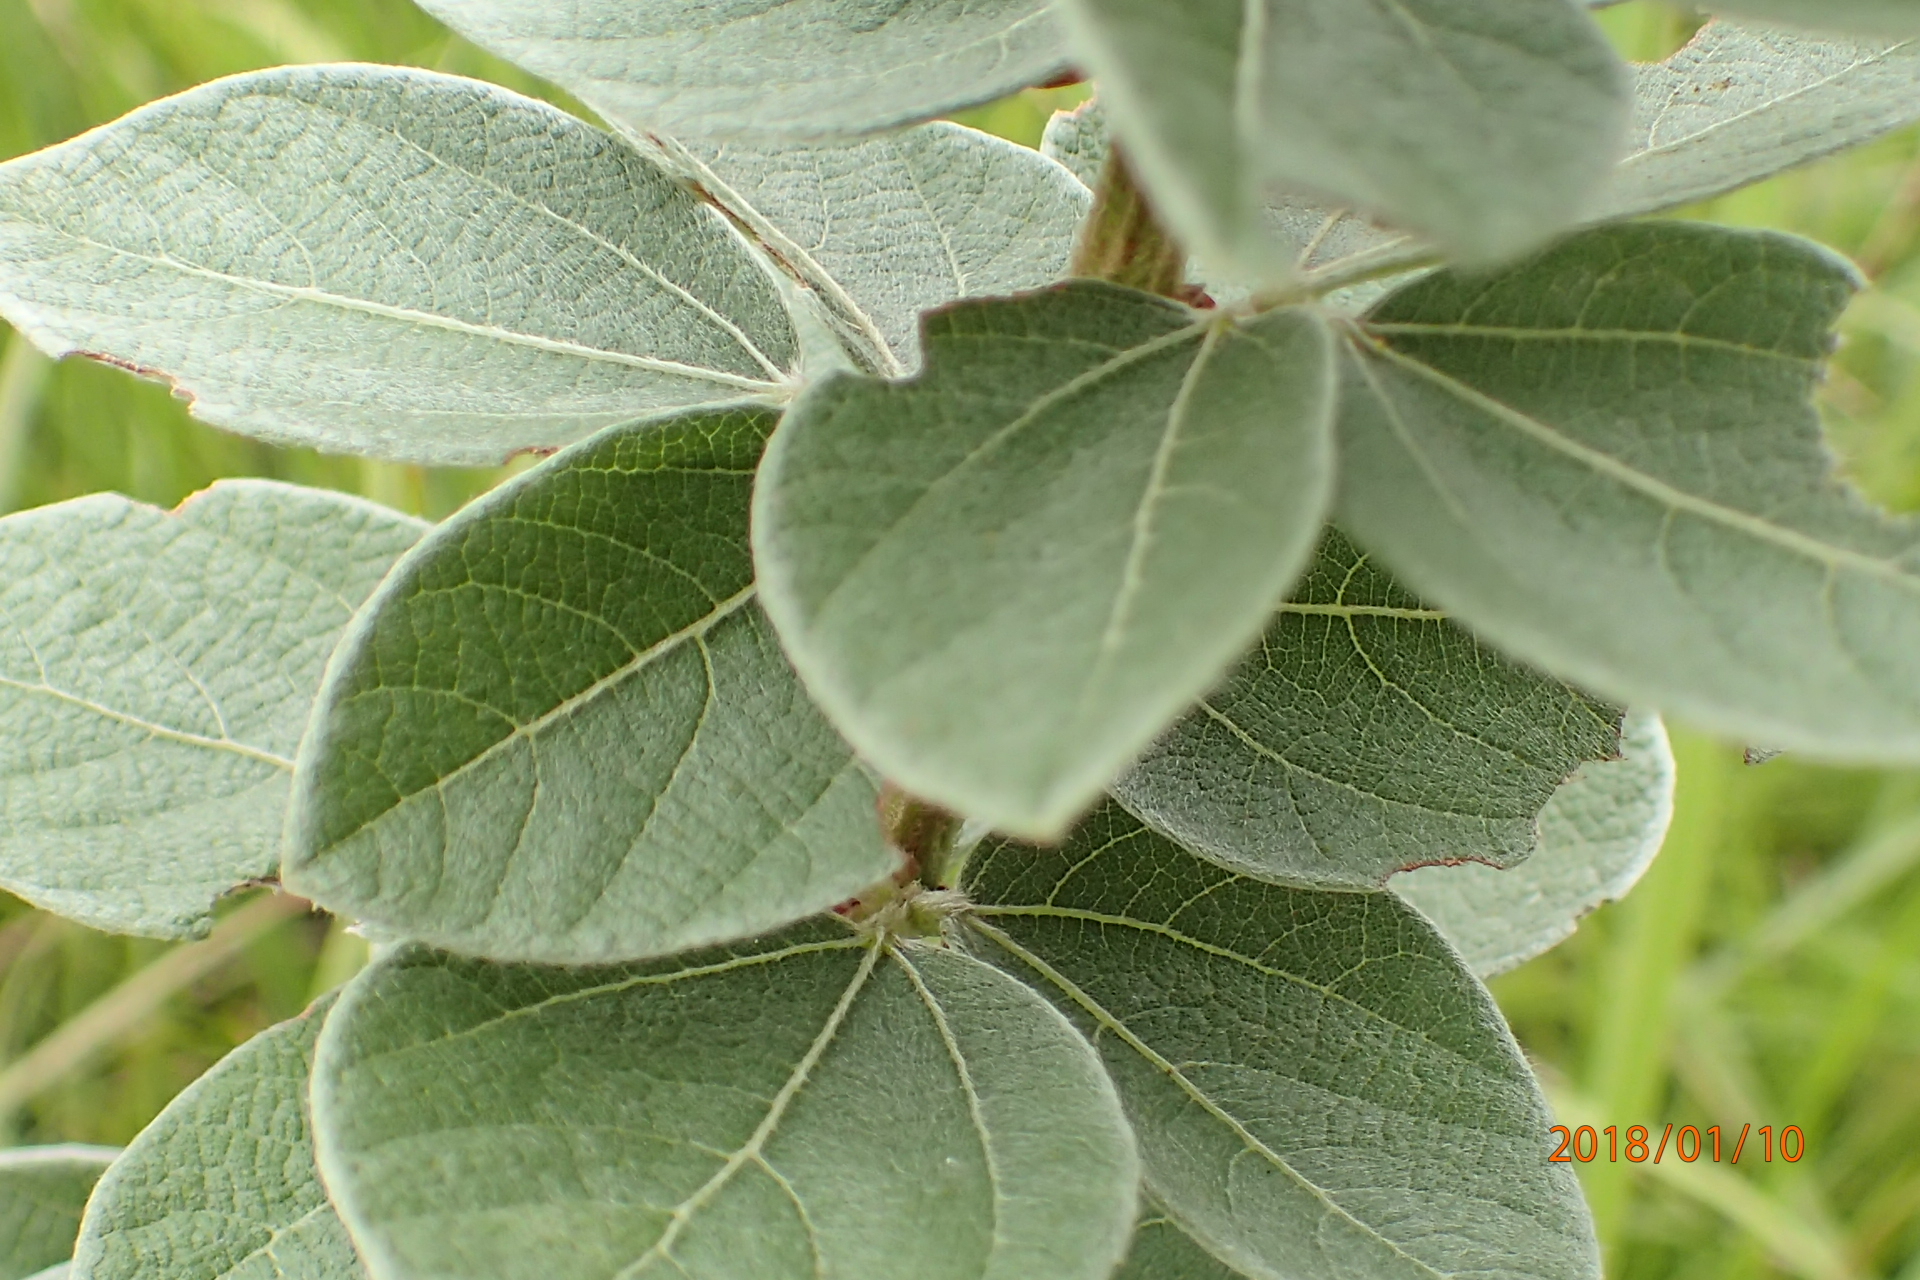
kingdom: Plantae
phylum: Tracheophyta
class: Magnoliopsida
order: Fabales
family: Fabaceae
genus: Rhynchosia
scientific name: Rhynchosia woodii
